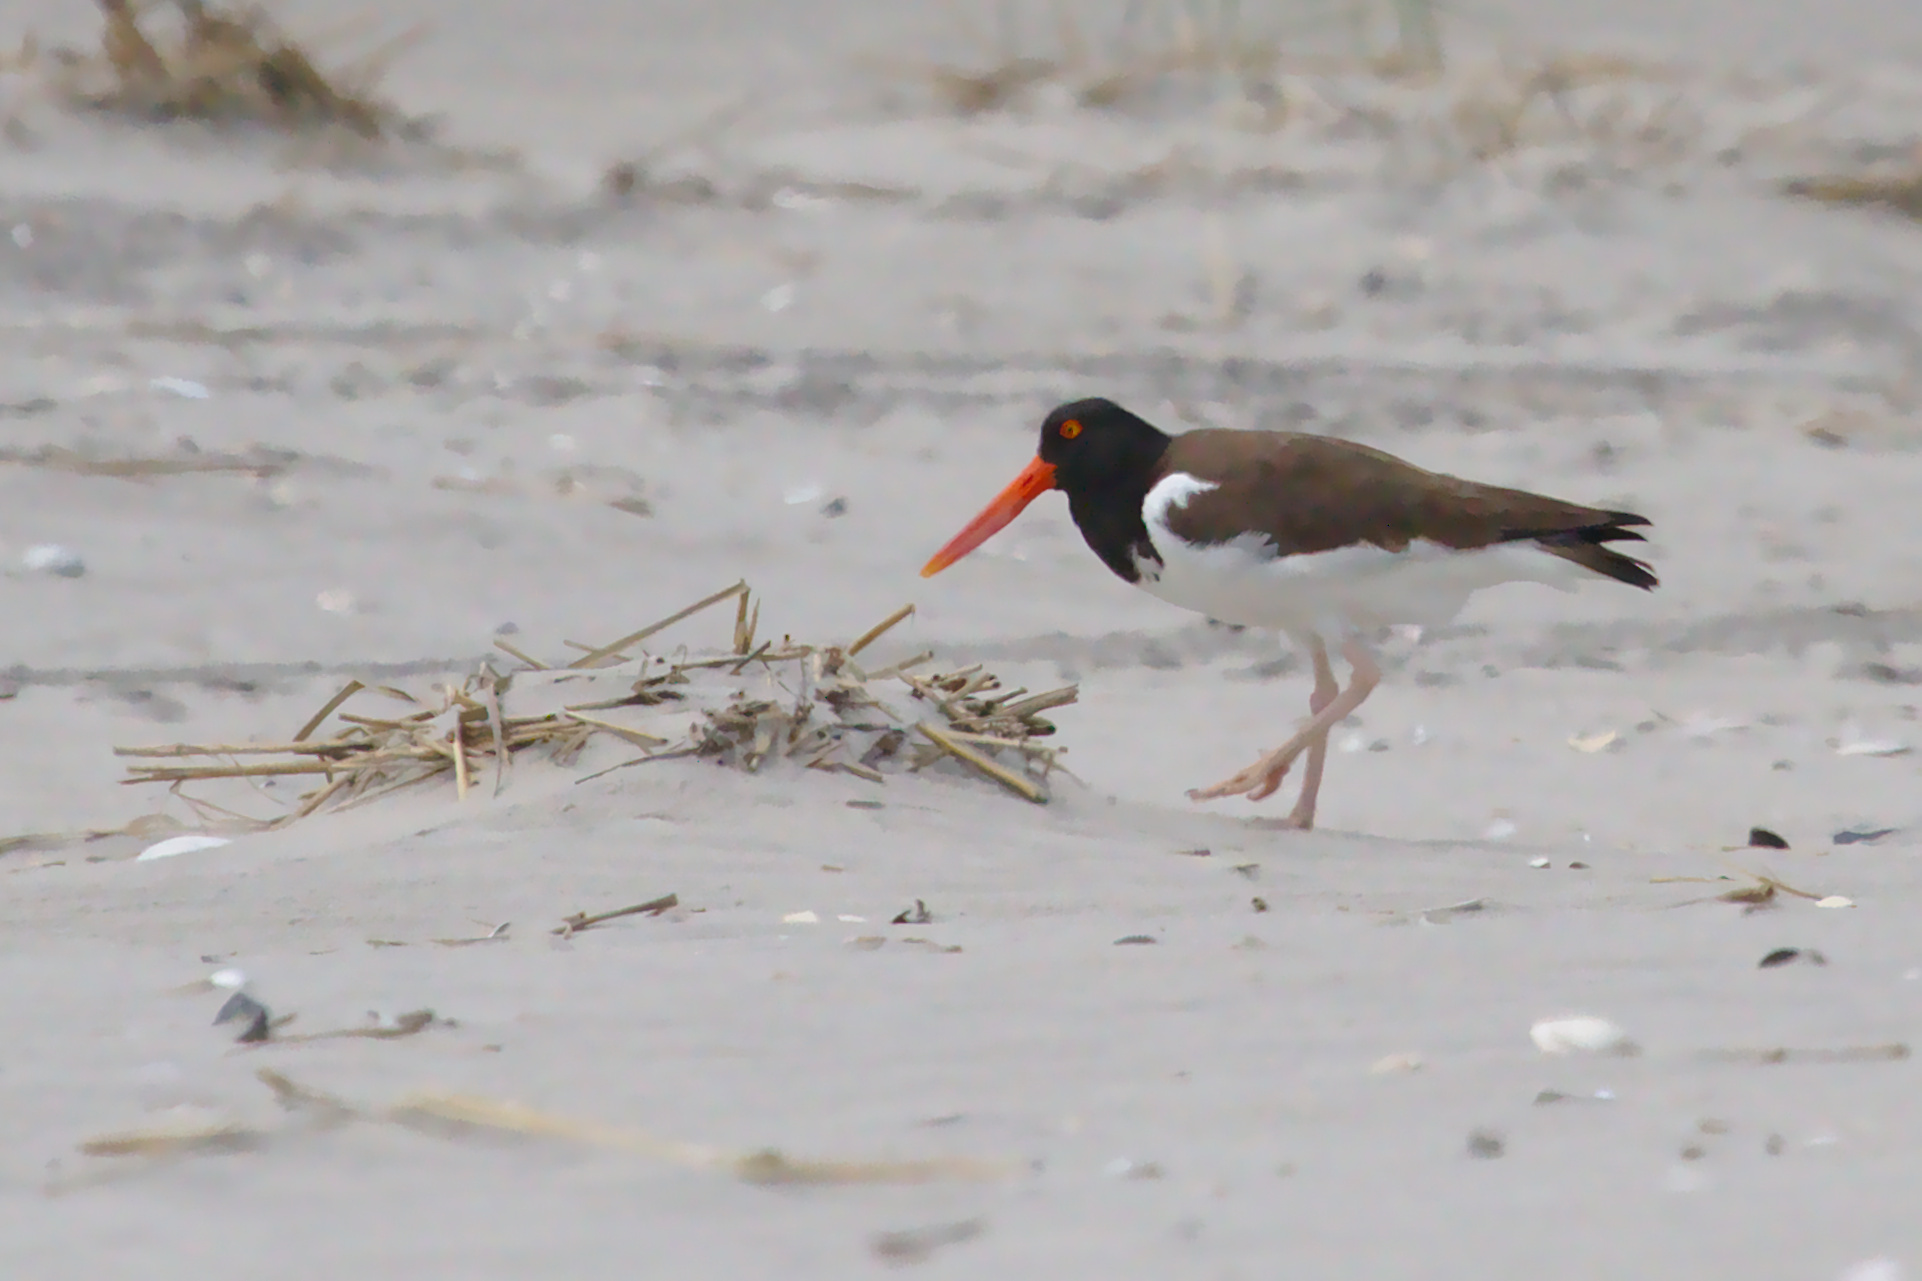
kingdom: Animalia
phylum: Chordata
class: Aves
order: Charadriiformes
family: Haematopodidae
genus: Haematopus
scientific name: Haematopus palliatus
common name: American oystercatcher
